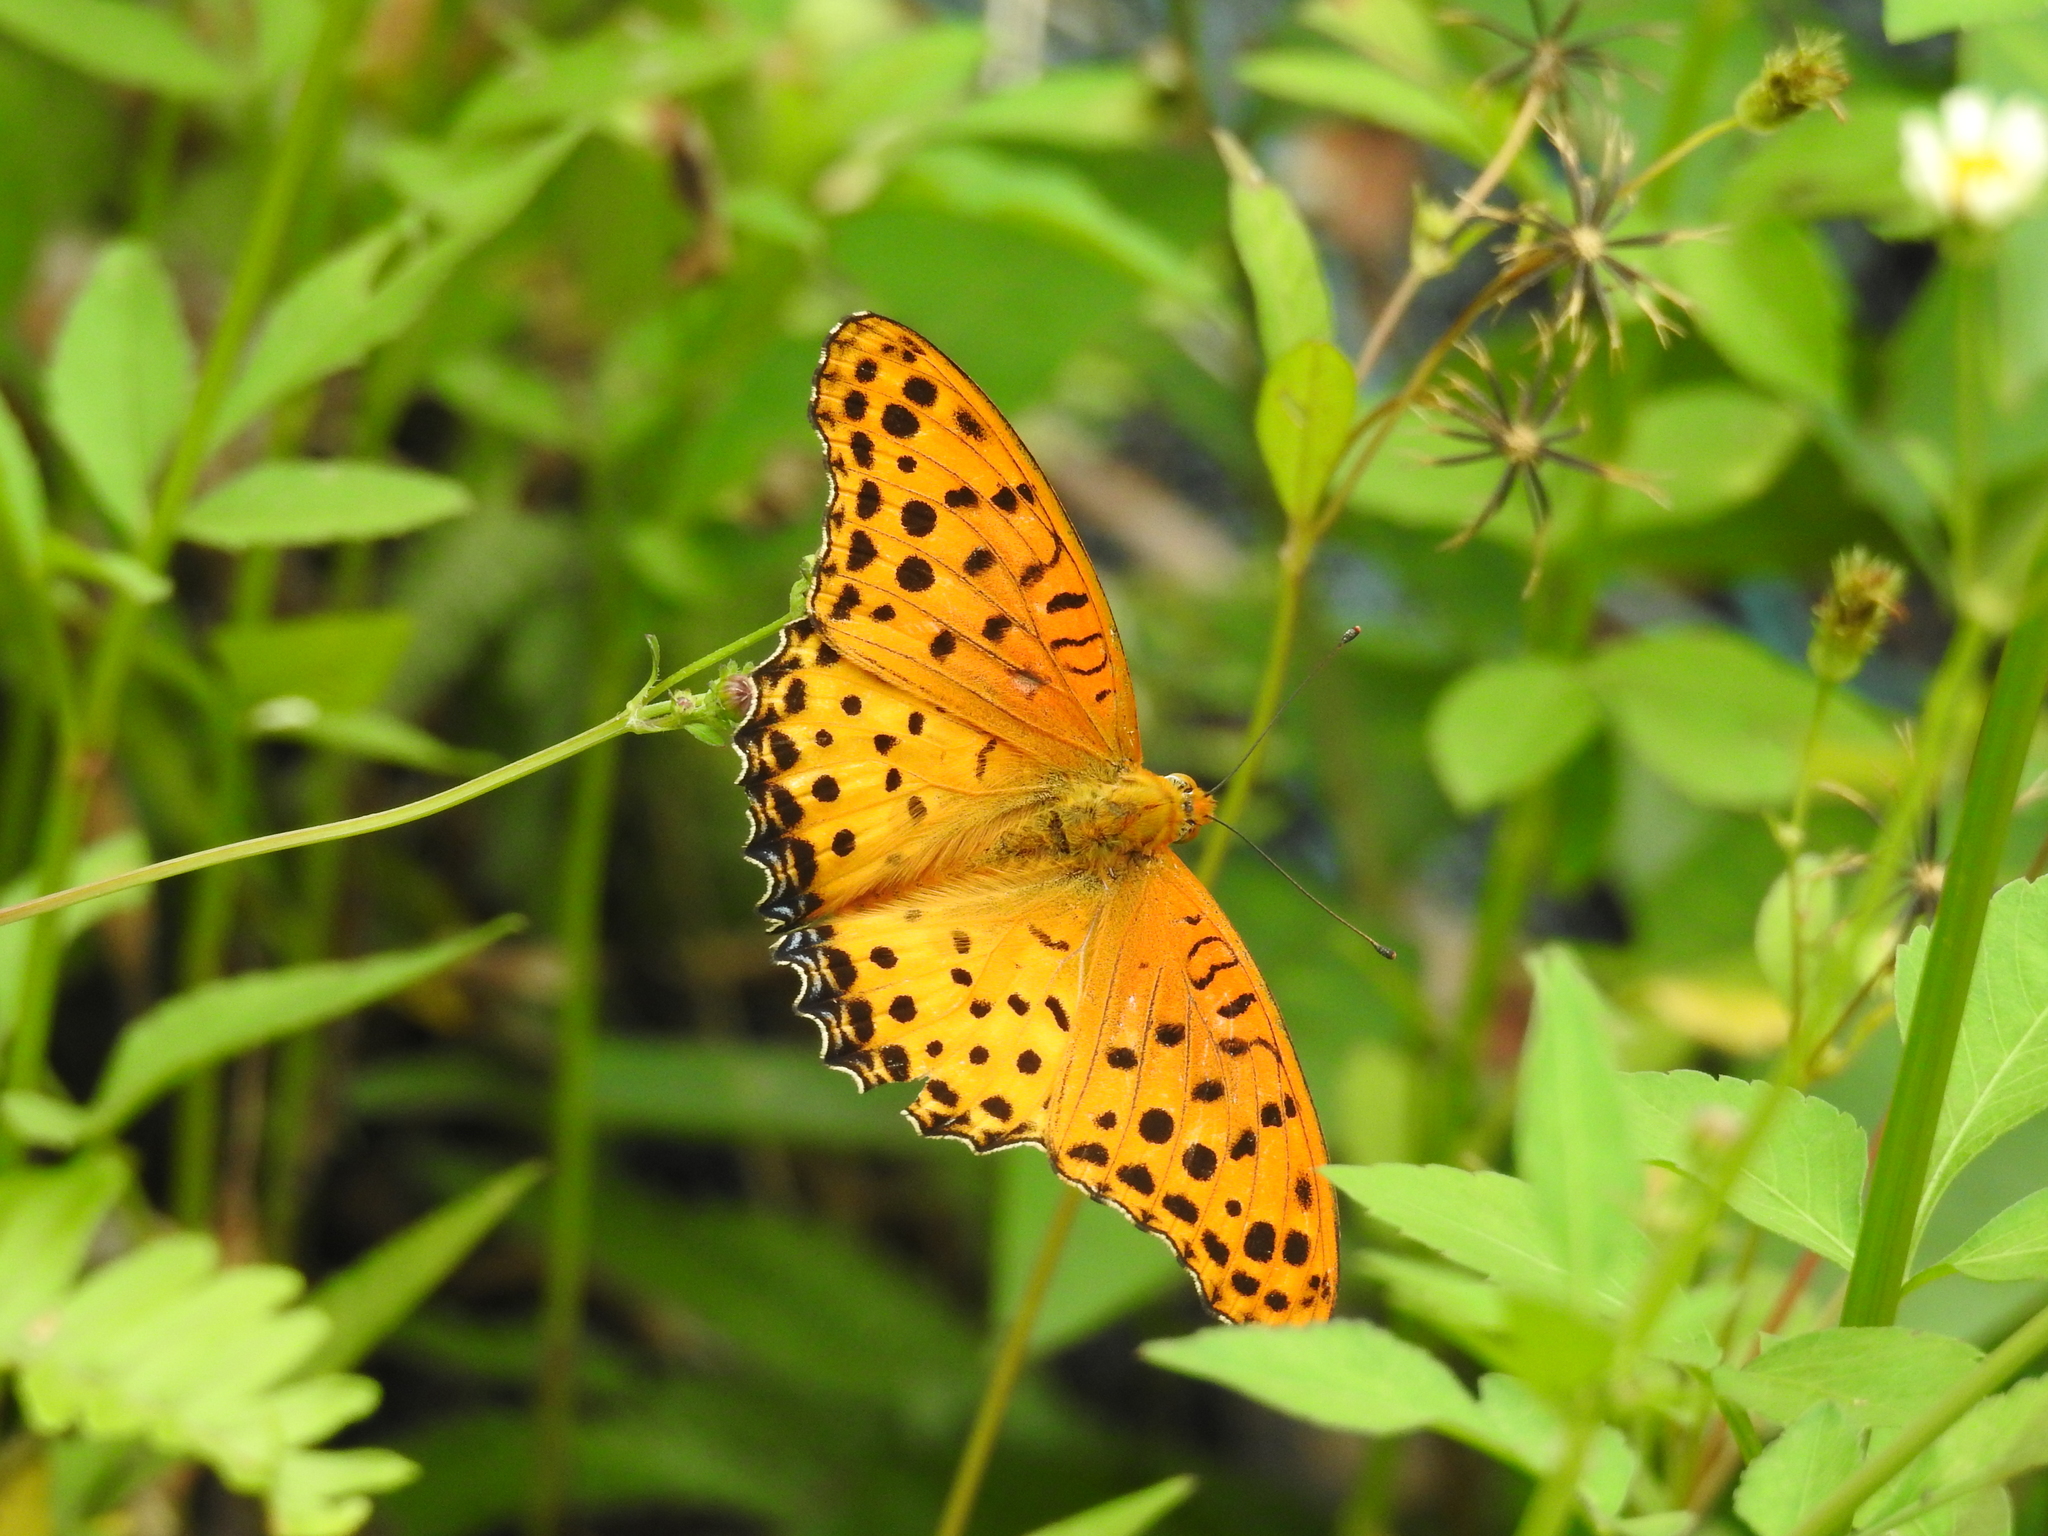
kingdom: Animalia
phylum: Arthropoda
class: Insecta
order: Lepidoptera
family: Nymphalidae
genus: Argynnis
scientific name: Argynnis hyperbius
